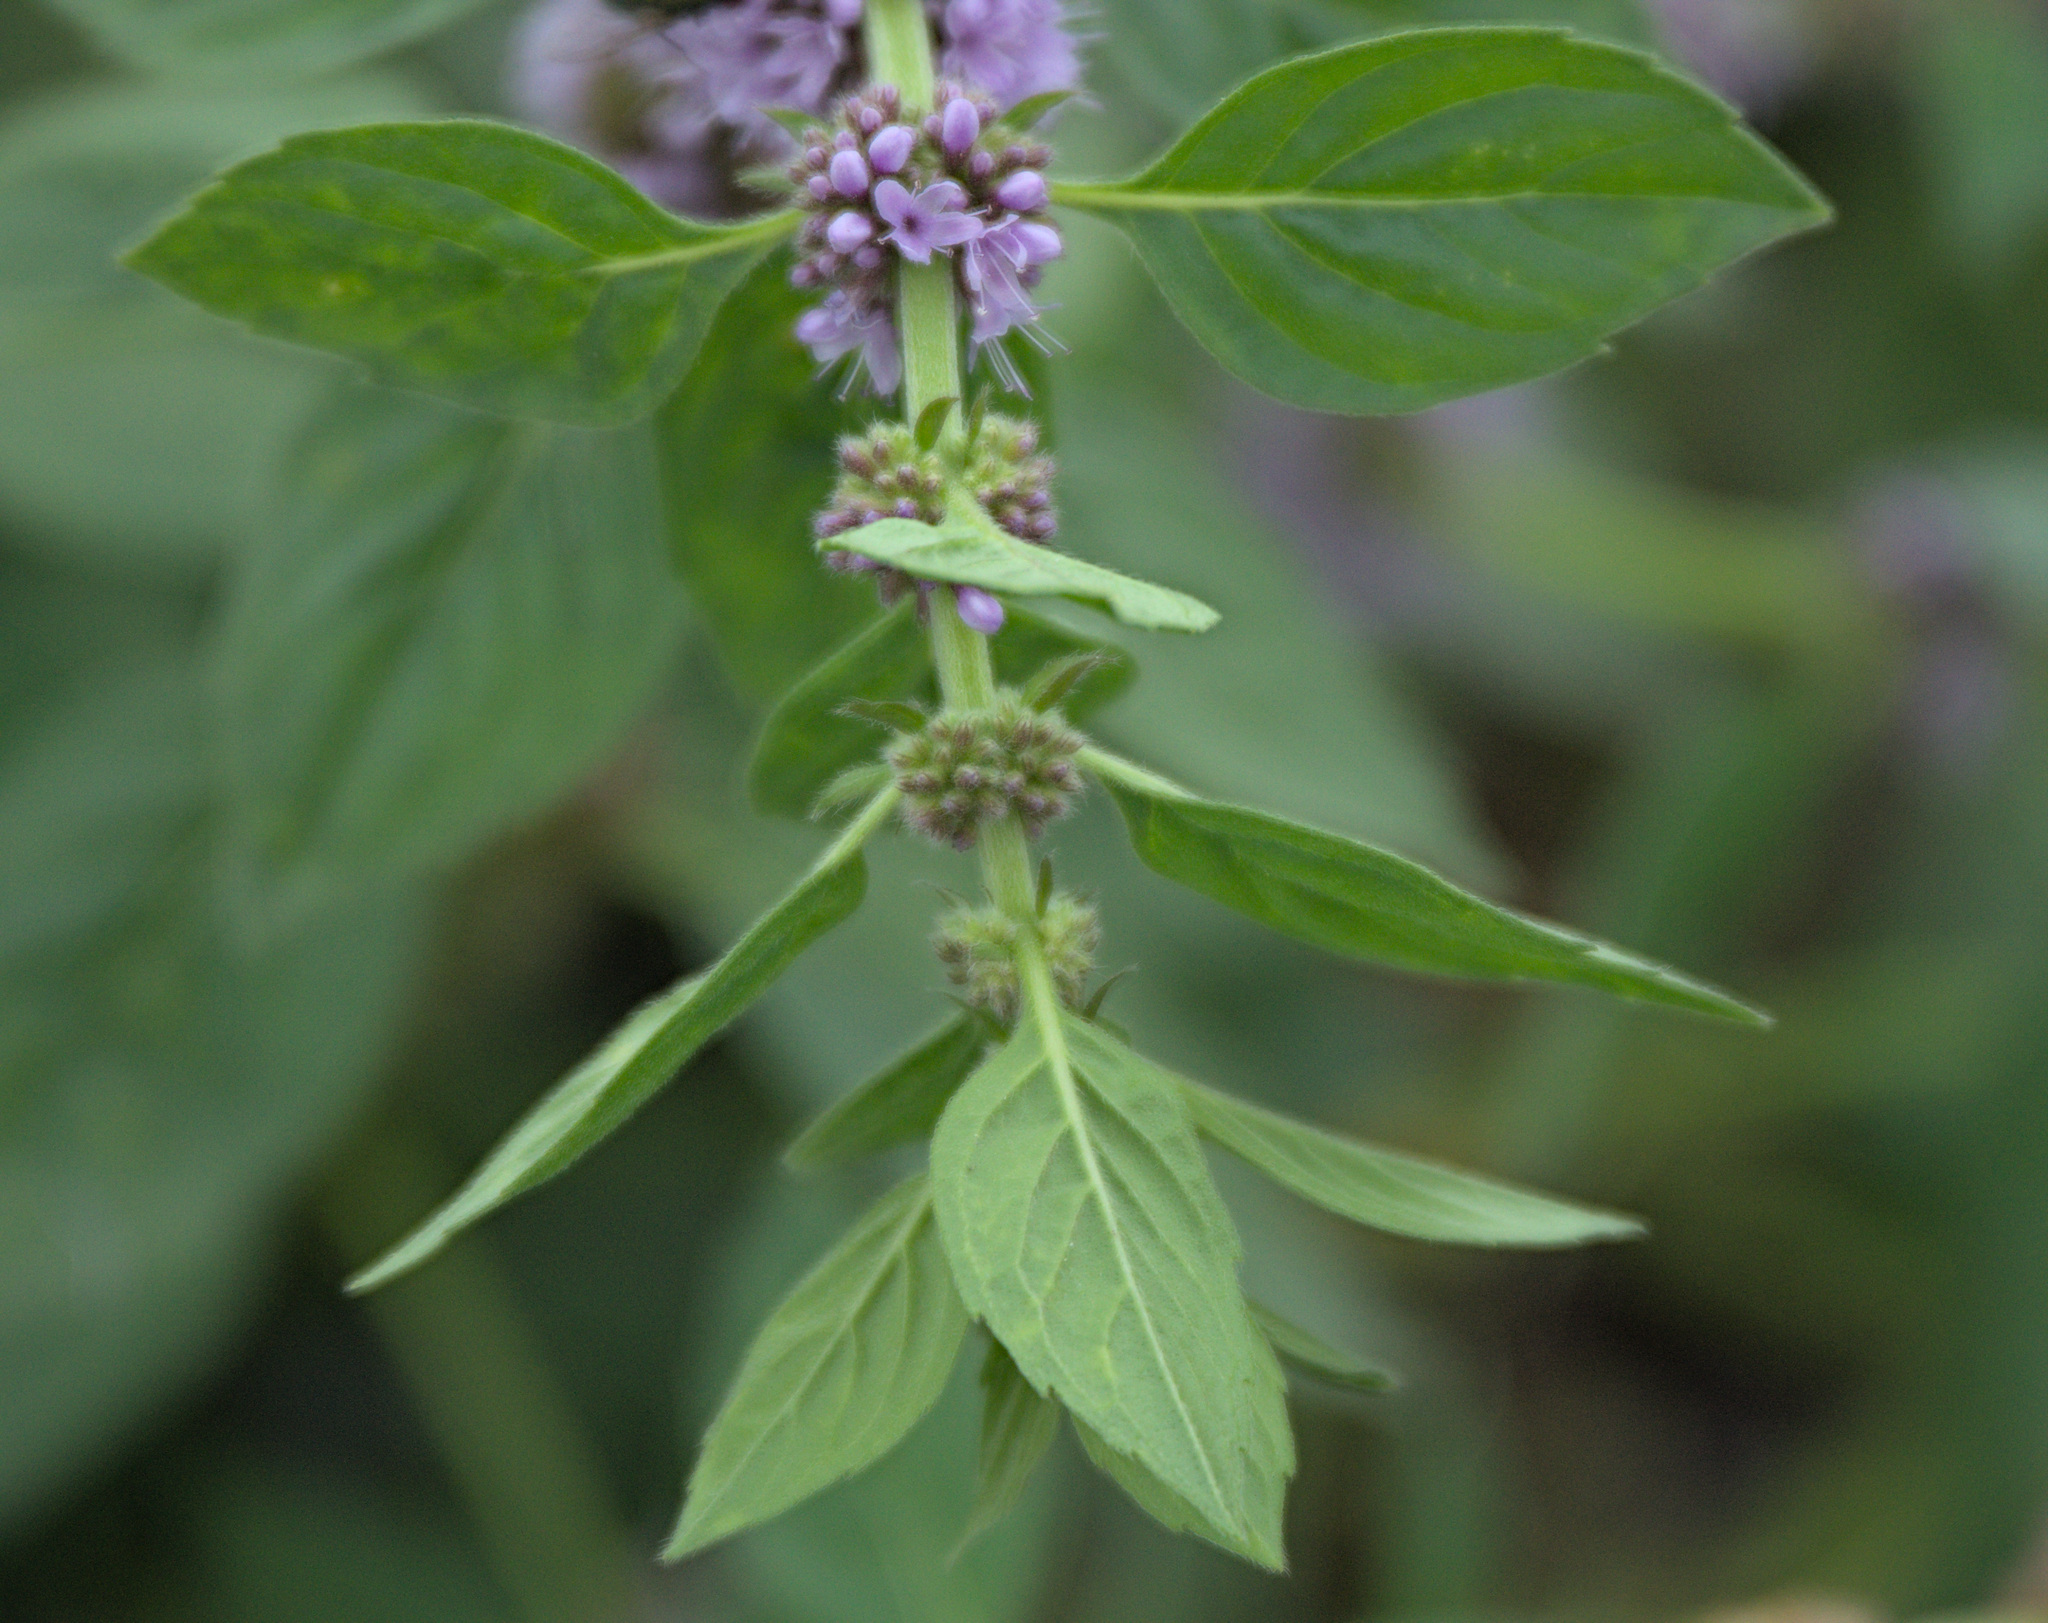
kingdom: Plantae
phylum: Tracheophyta
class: Magnoliopsida
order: Lamiales
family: Lamiaceae
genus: Mentha
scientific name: Mentha arvensis
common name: Corn mint
